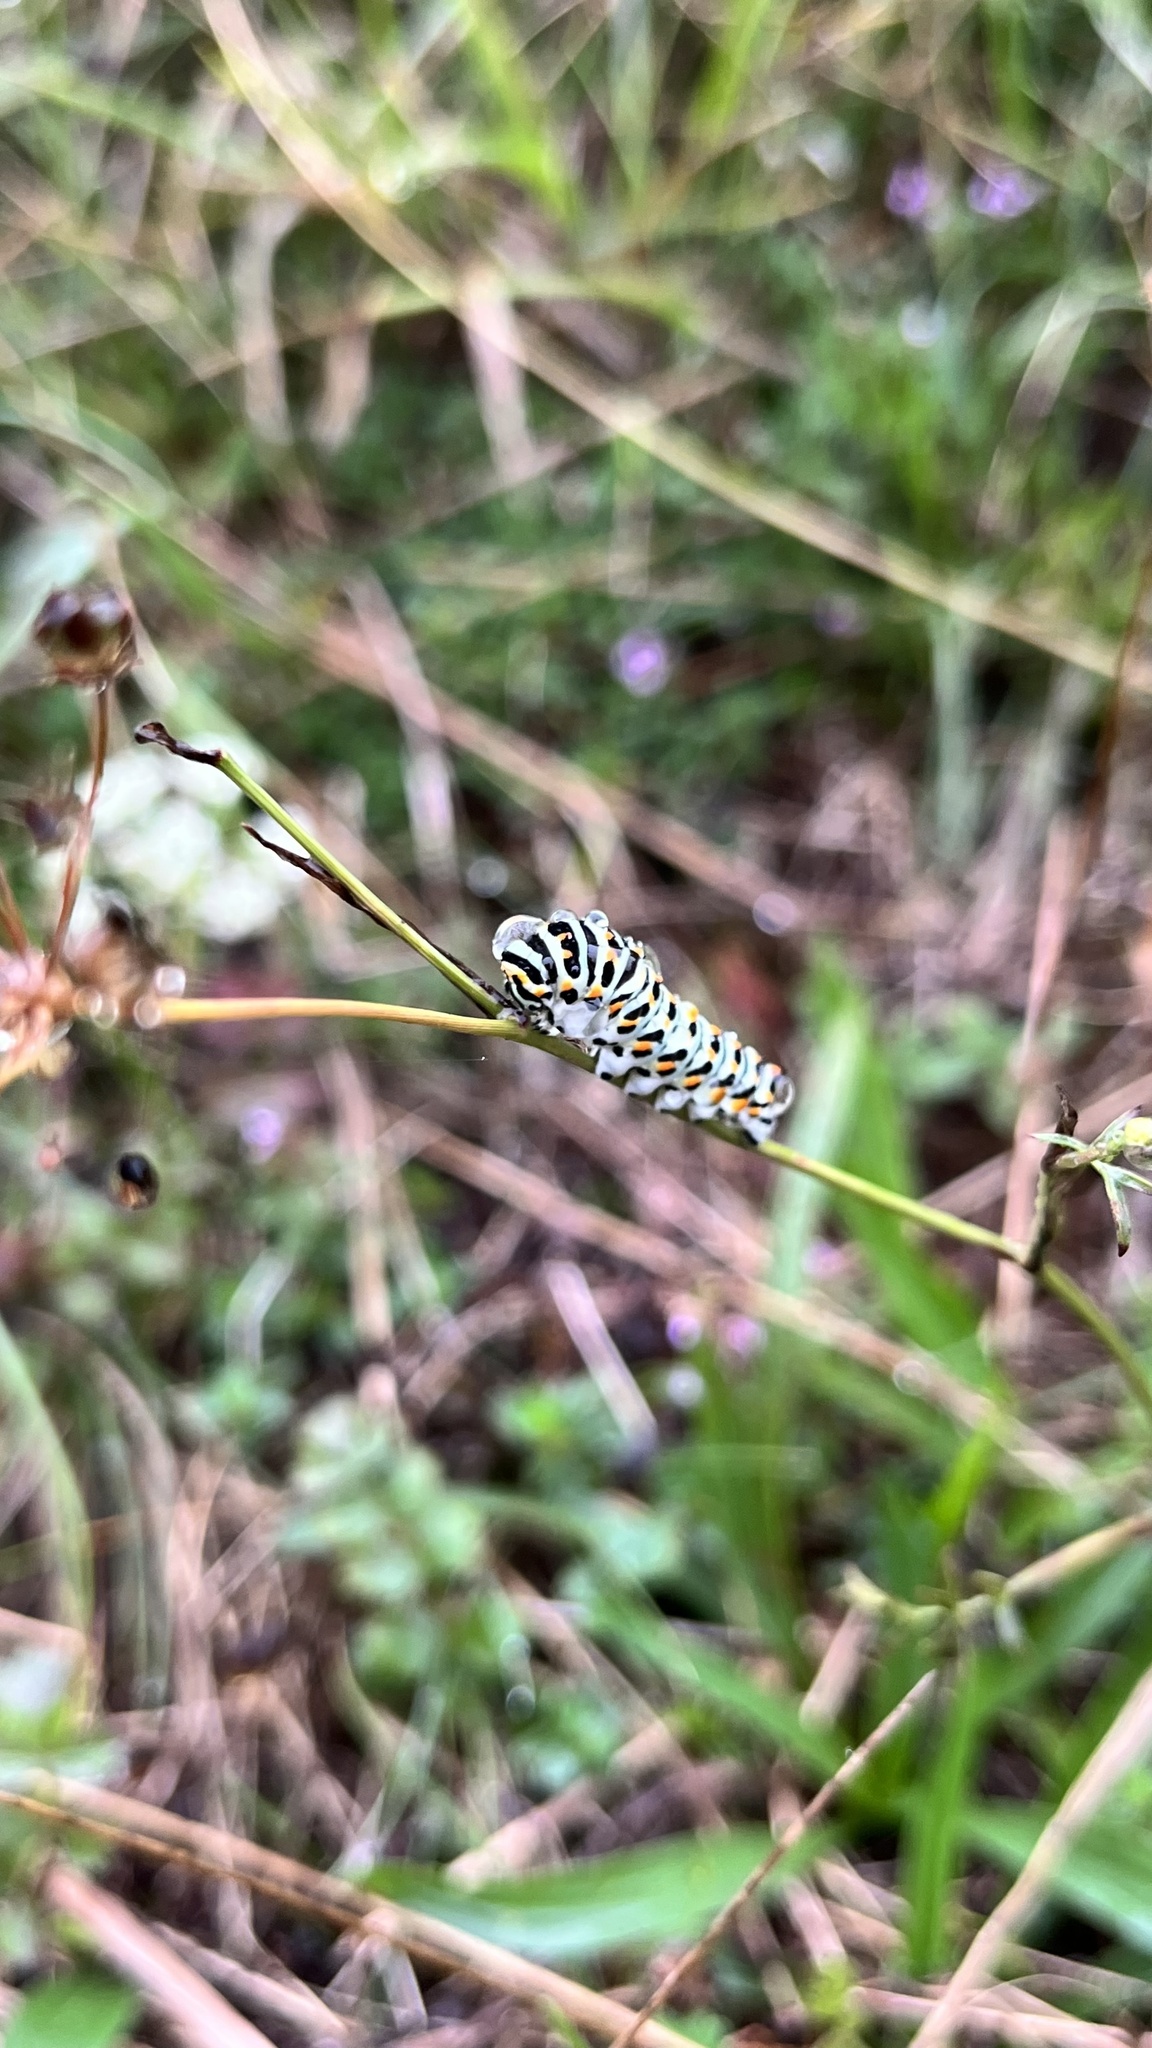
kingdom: Animalia
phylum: Arthropoda
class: Insecta
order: Lepidoptera
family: Papilionidae
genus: Papilio
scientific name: Papilio machaon
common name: Swallowtail
